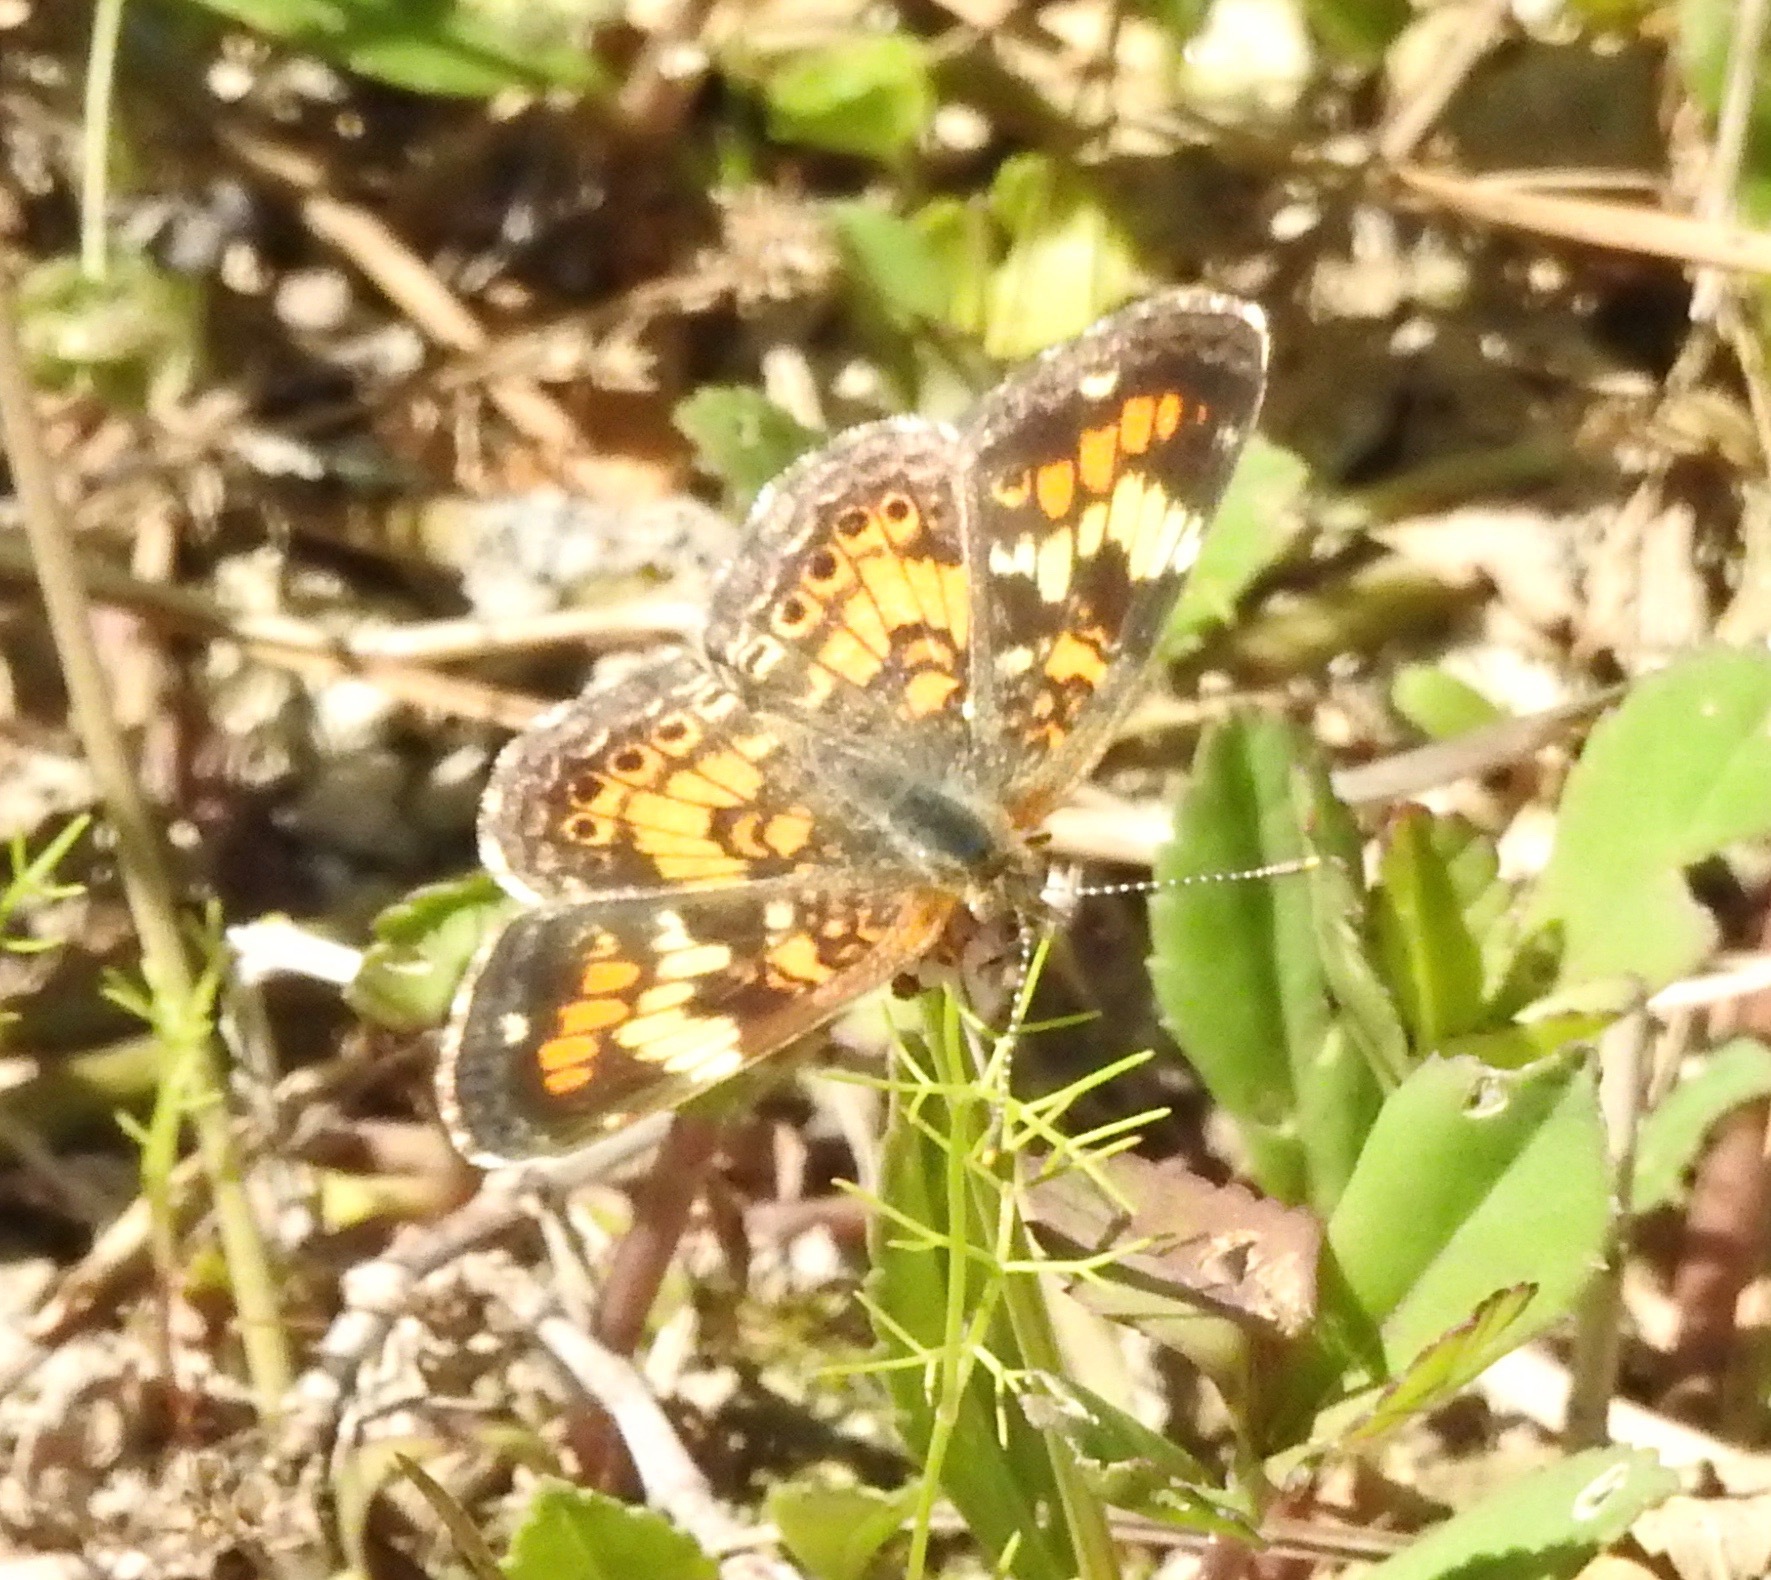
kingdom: Animalia
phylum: Arthropoda
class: Insecta
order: Lepidoptera
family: Nymphalidae
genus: Phyciodes
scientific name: Phyciodes phaon
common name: Phaon crescent
